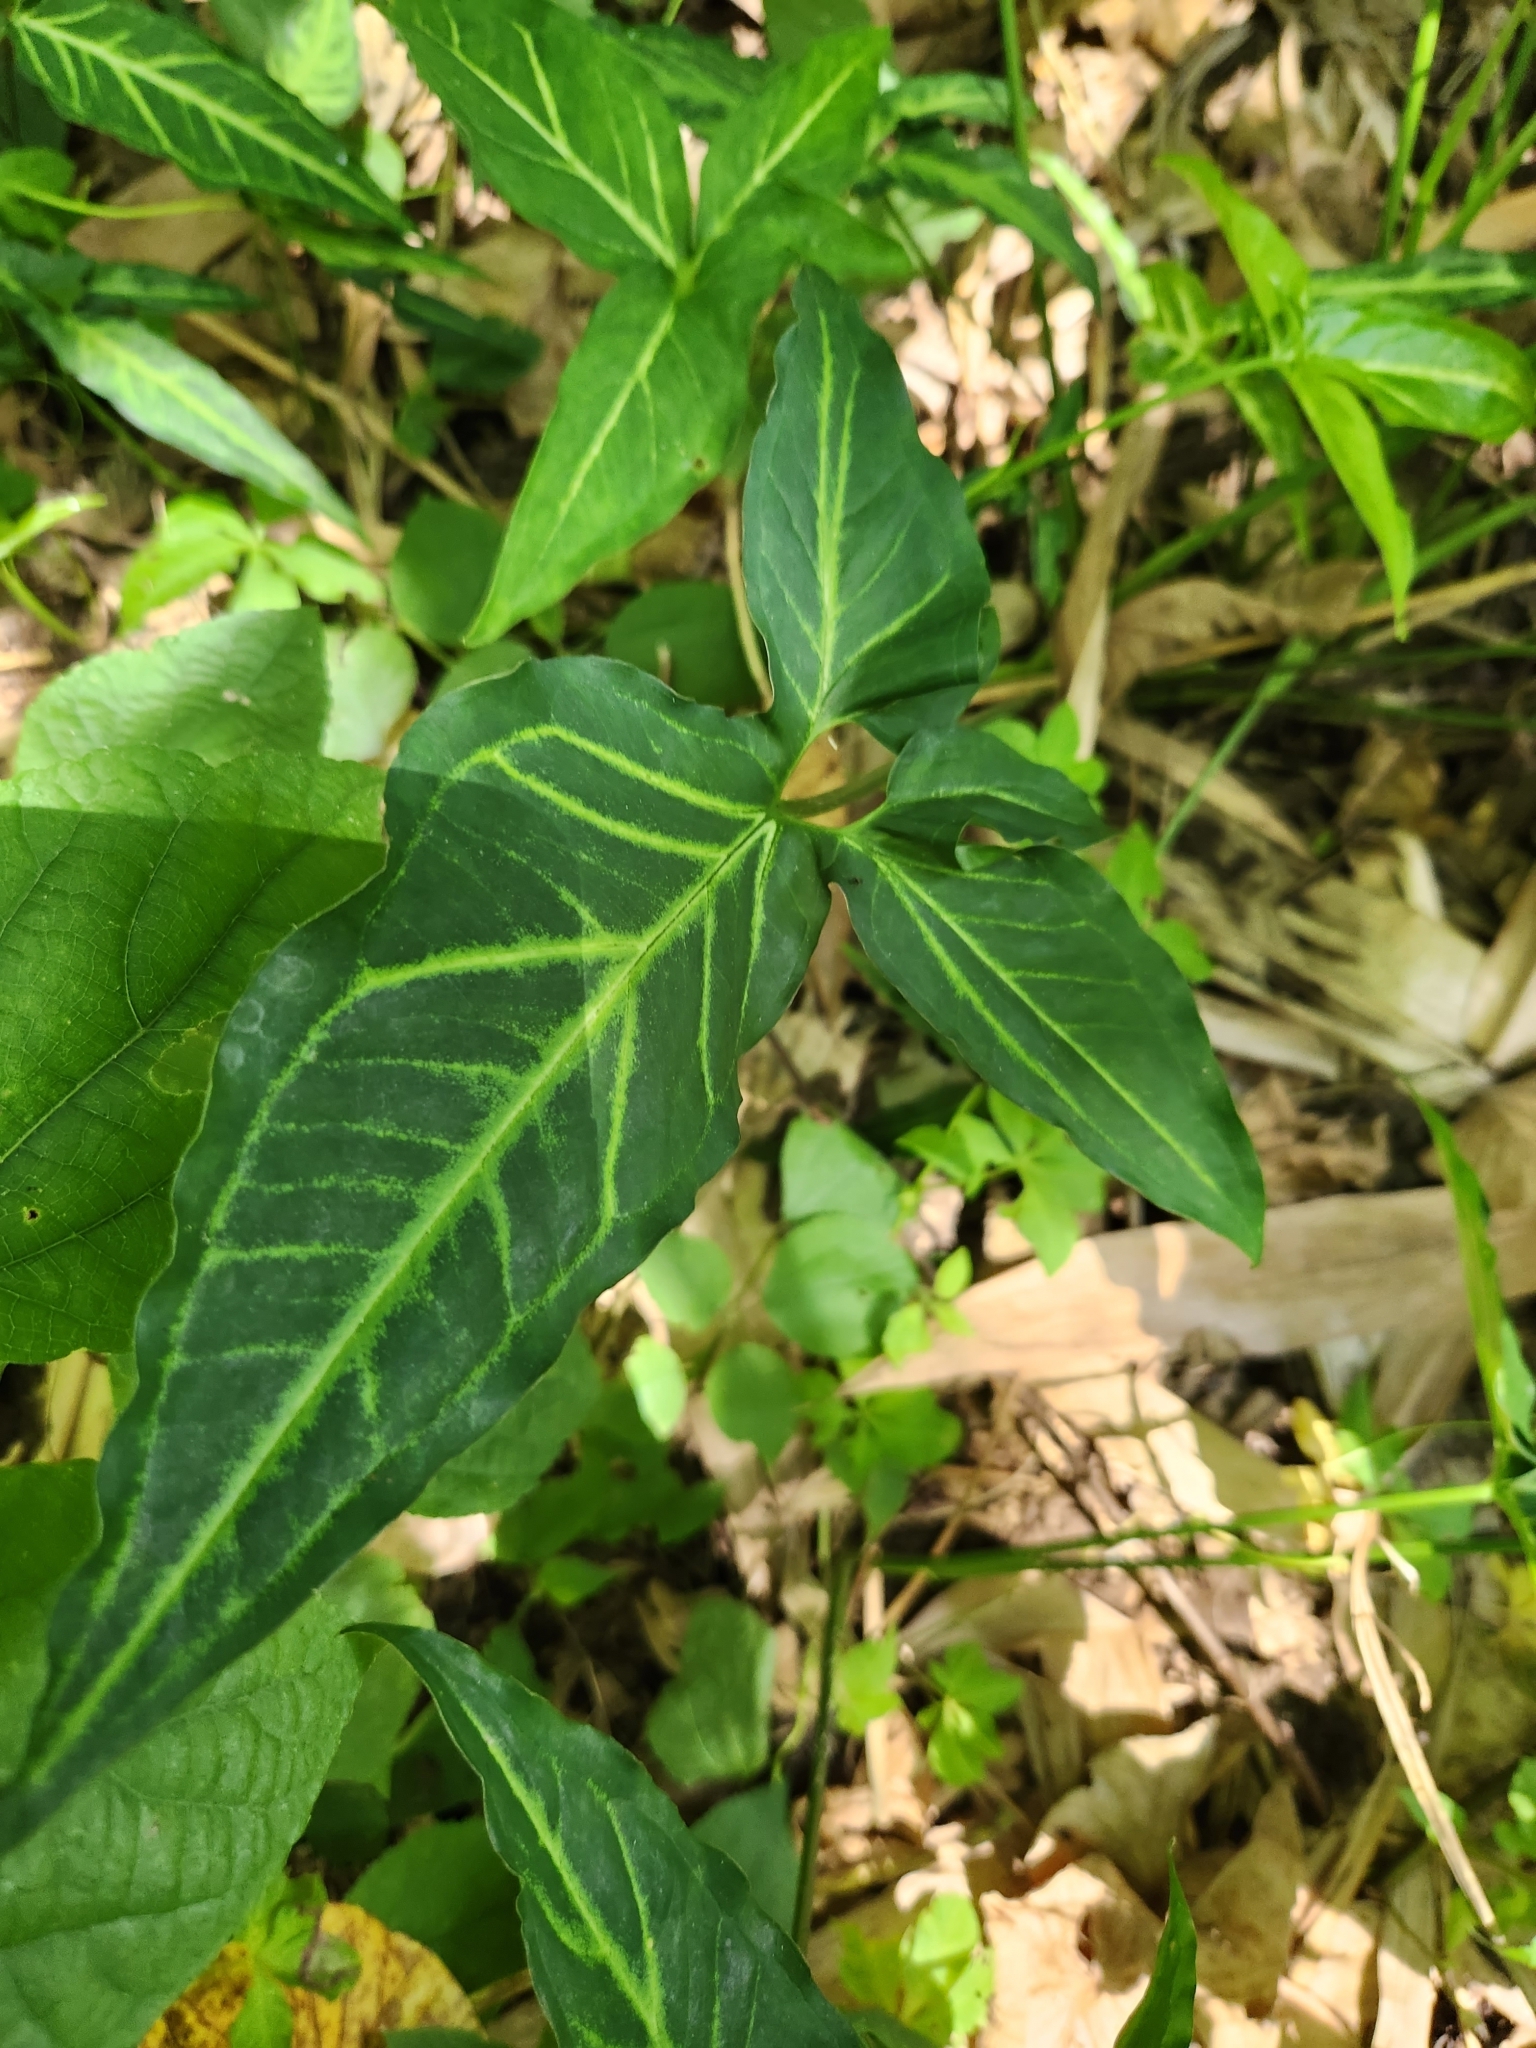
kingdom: Plantae
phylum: Tracheophyta
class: Liliopsida
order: Alismatales
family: Araceae
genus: Syngonium
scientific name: Syngonium angustatum
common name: Fivefingers
